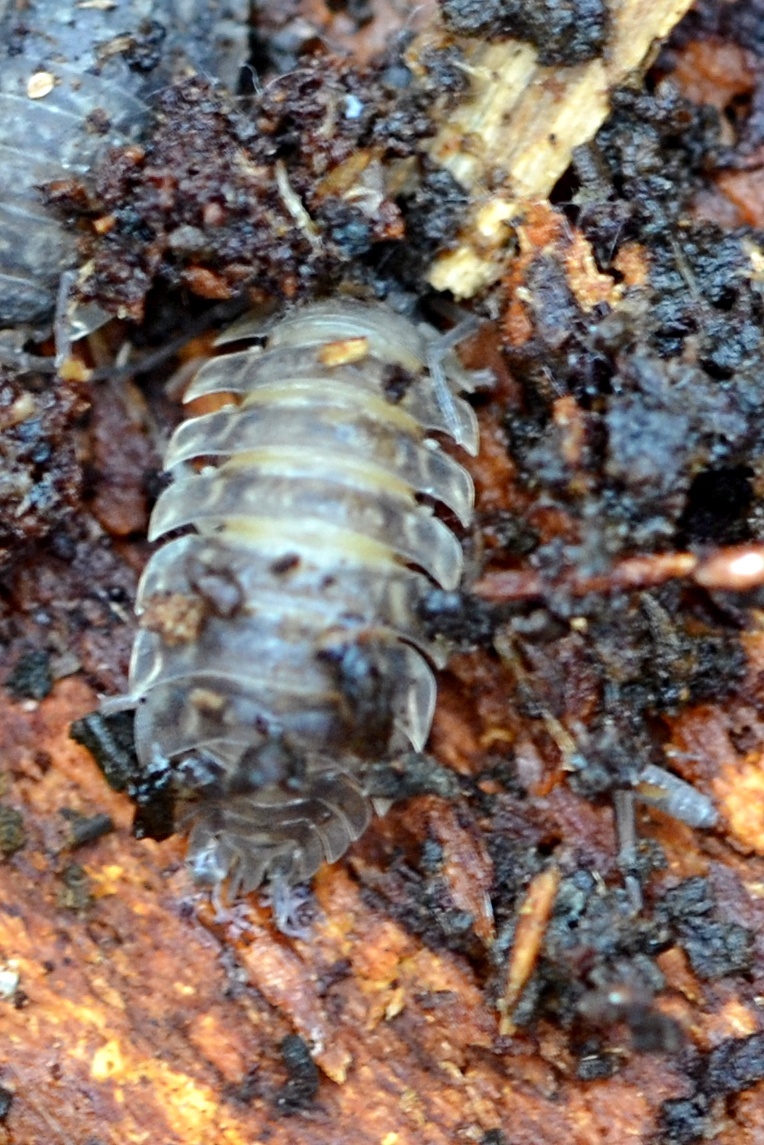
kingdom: Animalia
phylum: Arthropoda
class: Malacostraca
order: Isopoda
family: Oniscidae
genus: Oniscus
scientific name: Oniscus asellus
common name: Common shiny woodlouse
